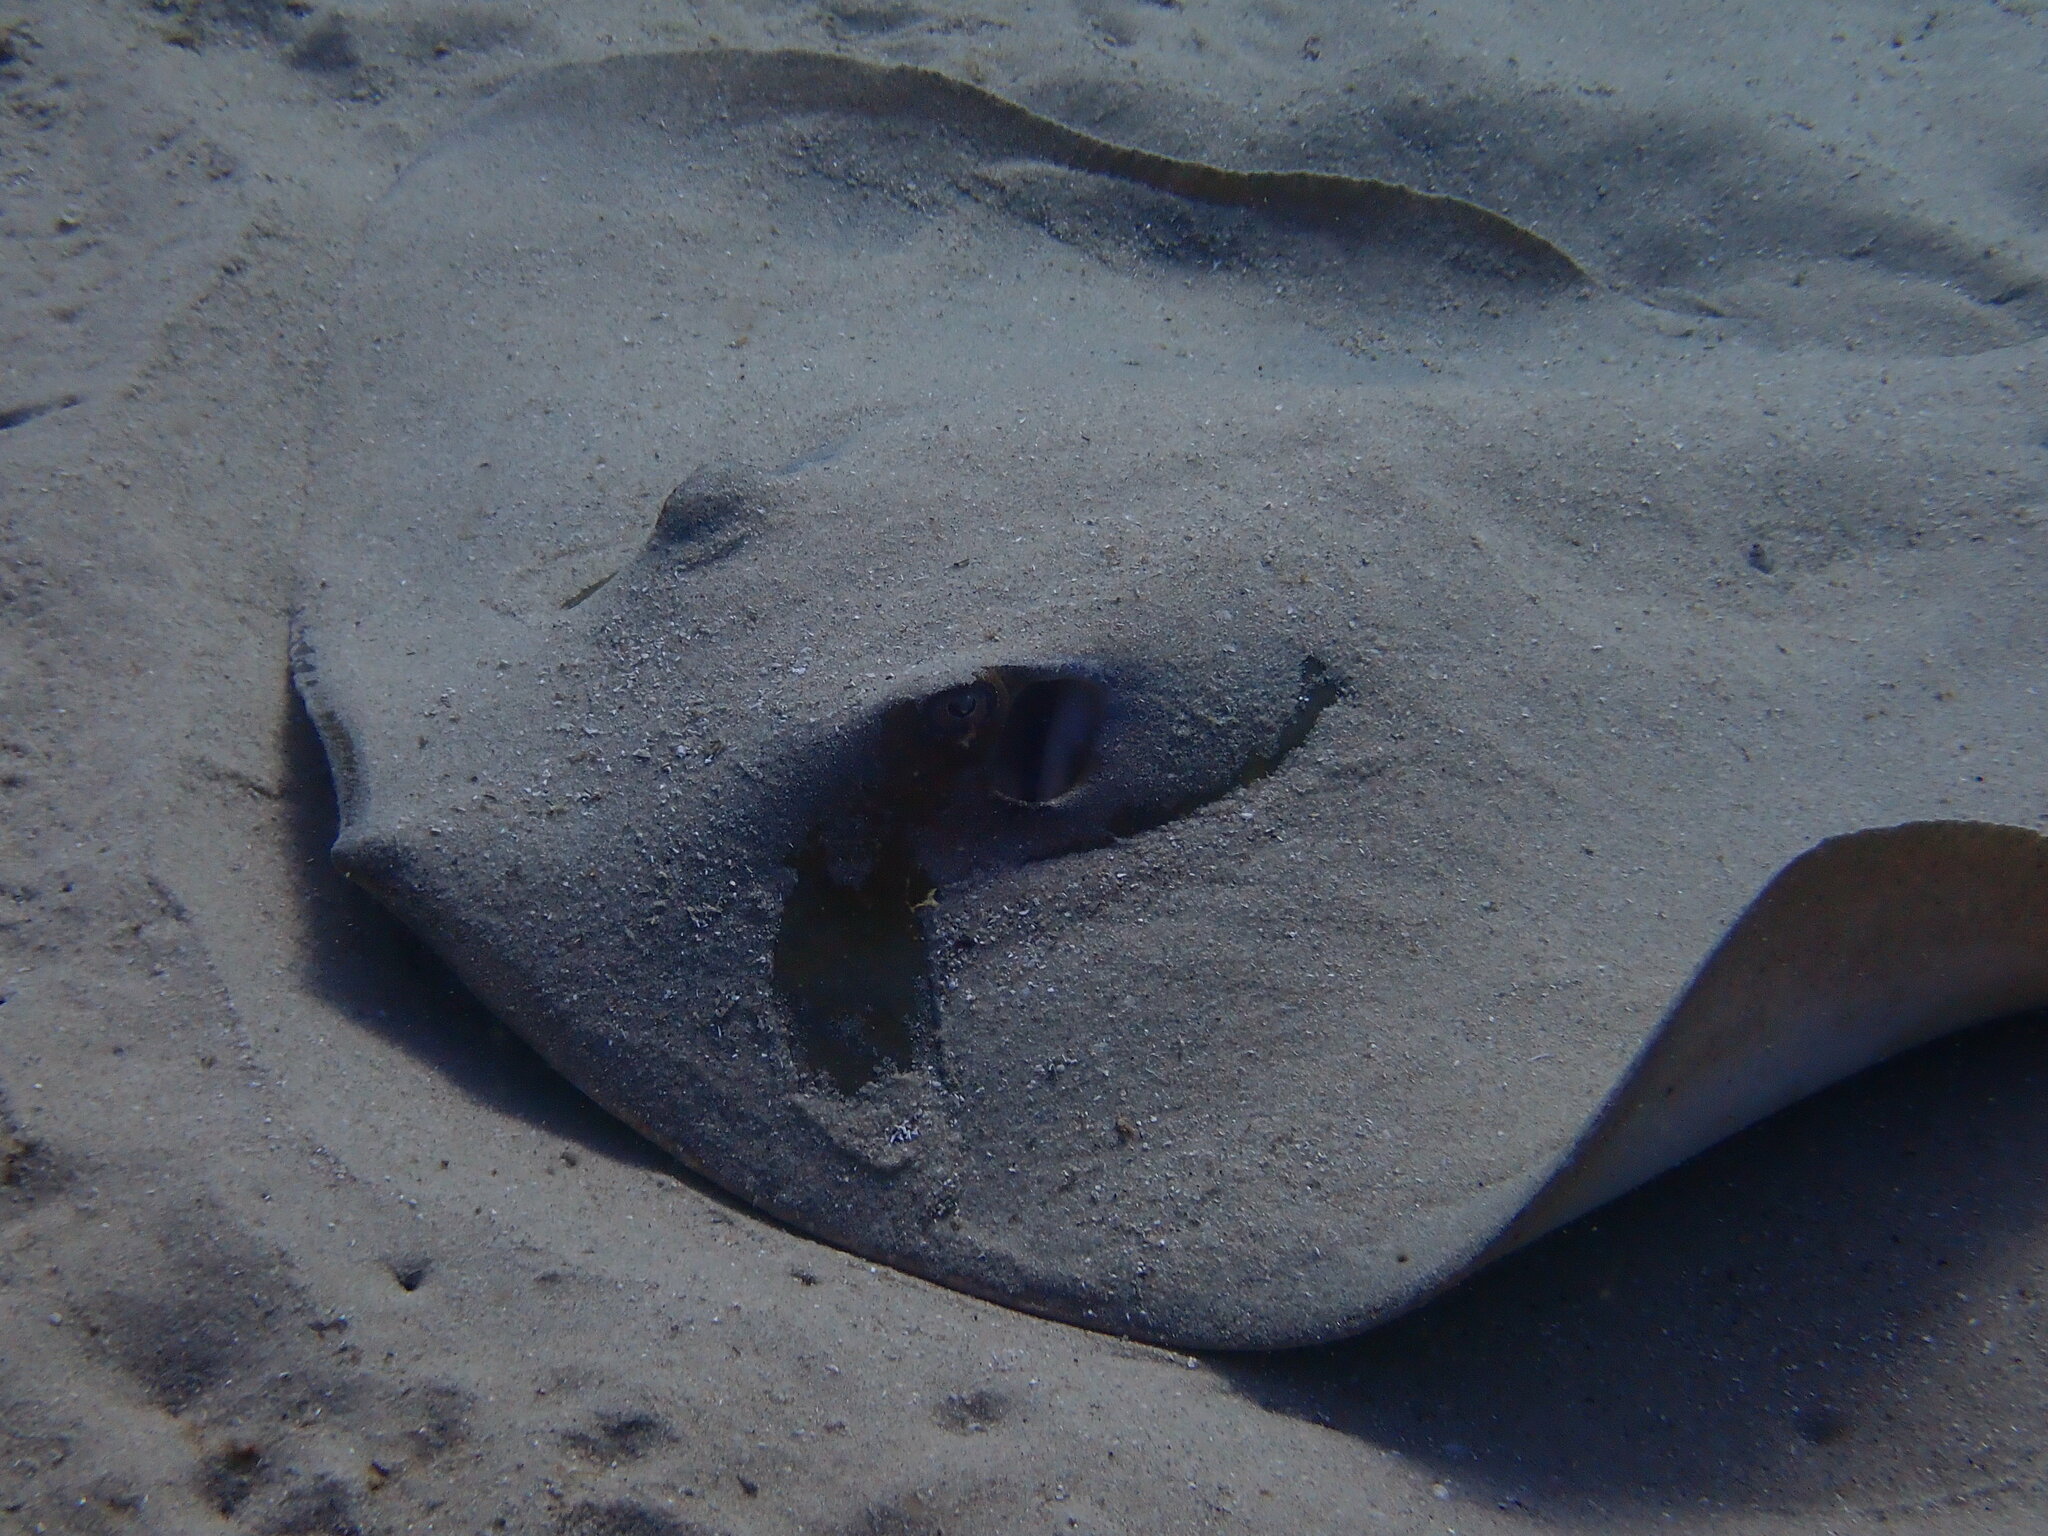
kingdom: Animalia
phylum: Chordata
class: Elasmobranchii
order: Myliobatiformes
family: Dasyatidae
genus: Dasyatis
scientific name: Dasyatis pastinaca
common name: Common stingray
